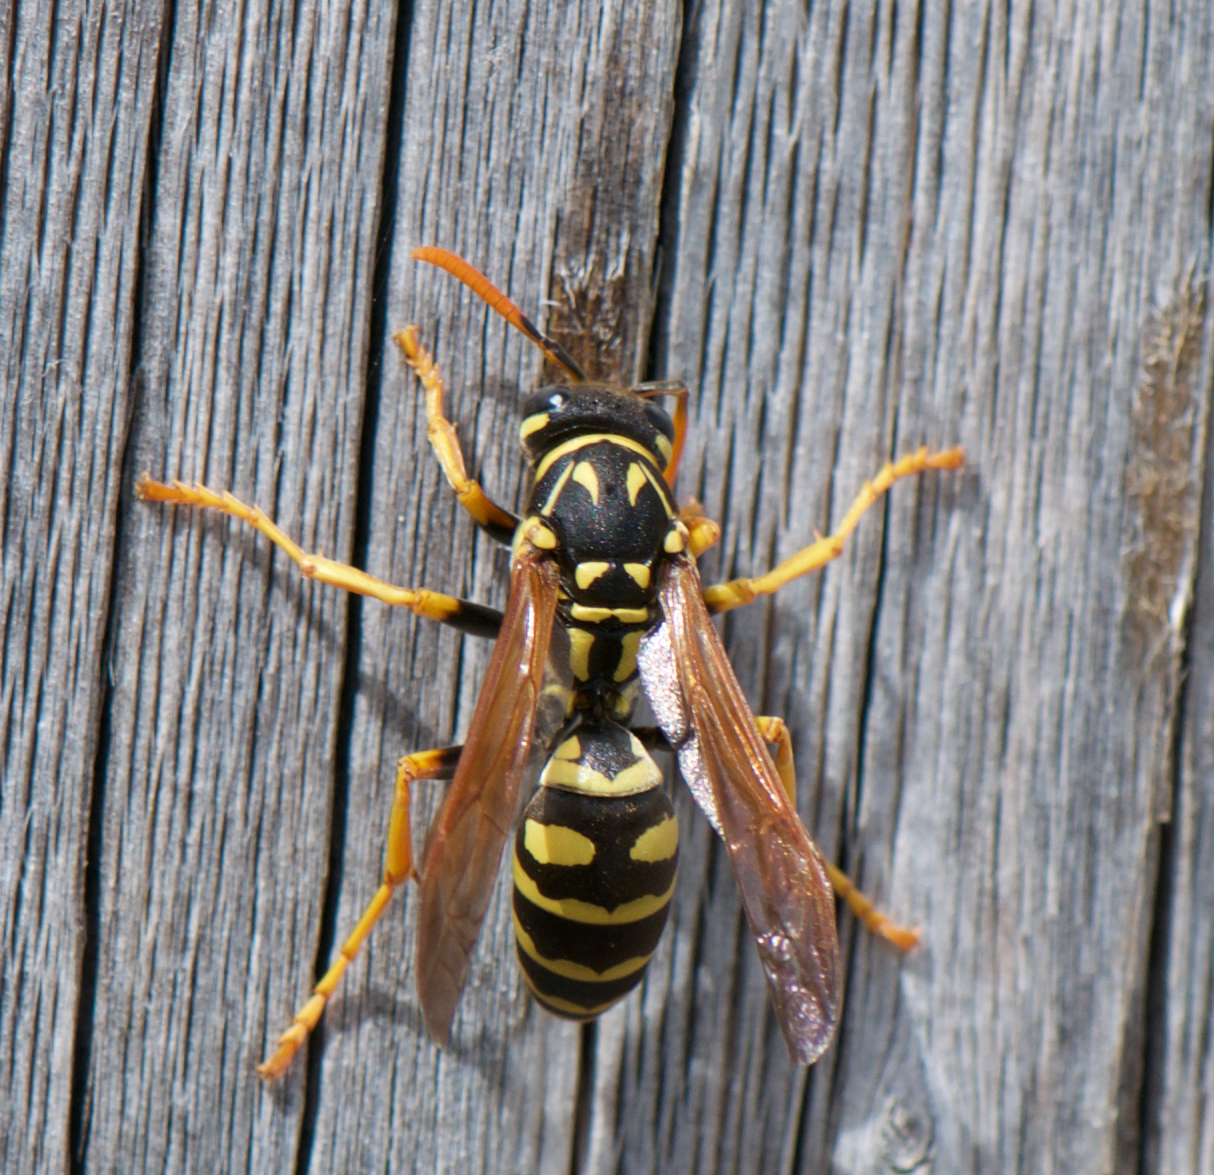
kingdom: Animalia
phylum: Arthropoda
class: Insecta
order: Hymenoptera
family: Eumenidae
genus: Polistes
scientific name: Polistes dominula
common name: Paper wasp
